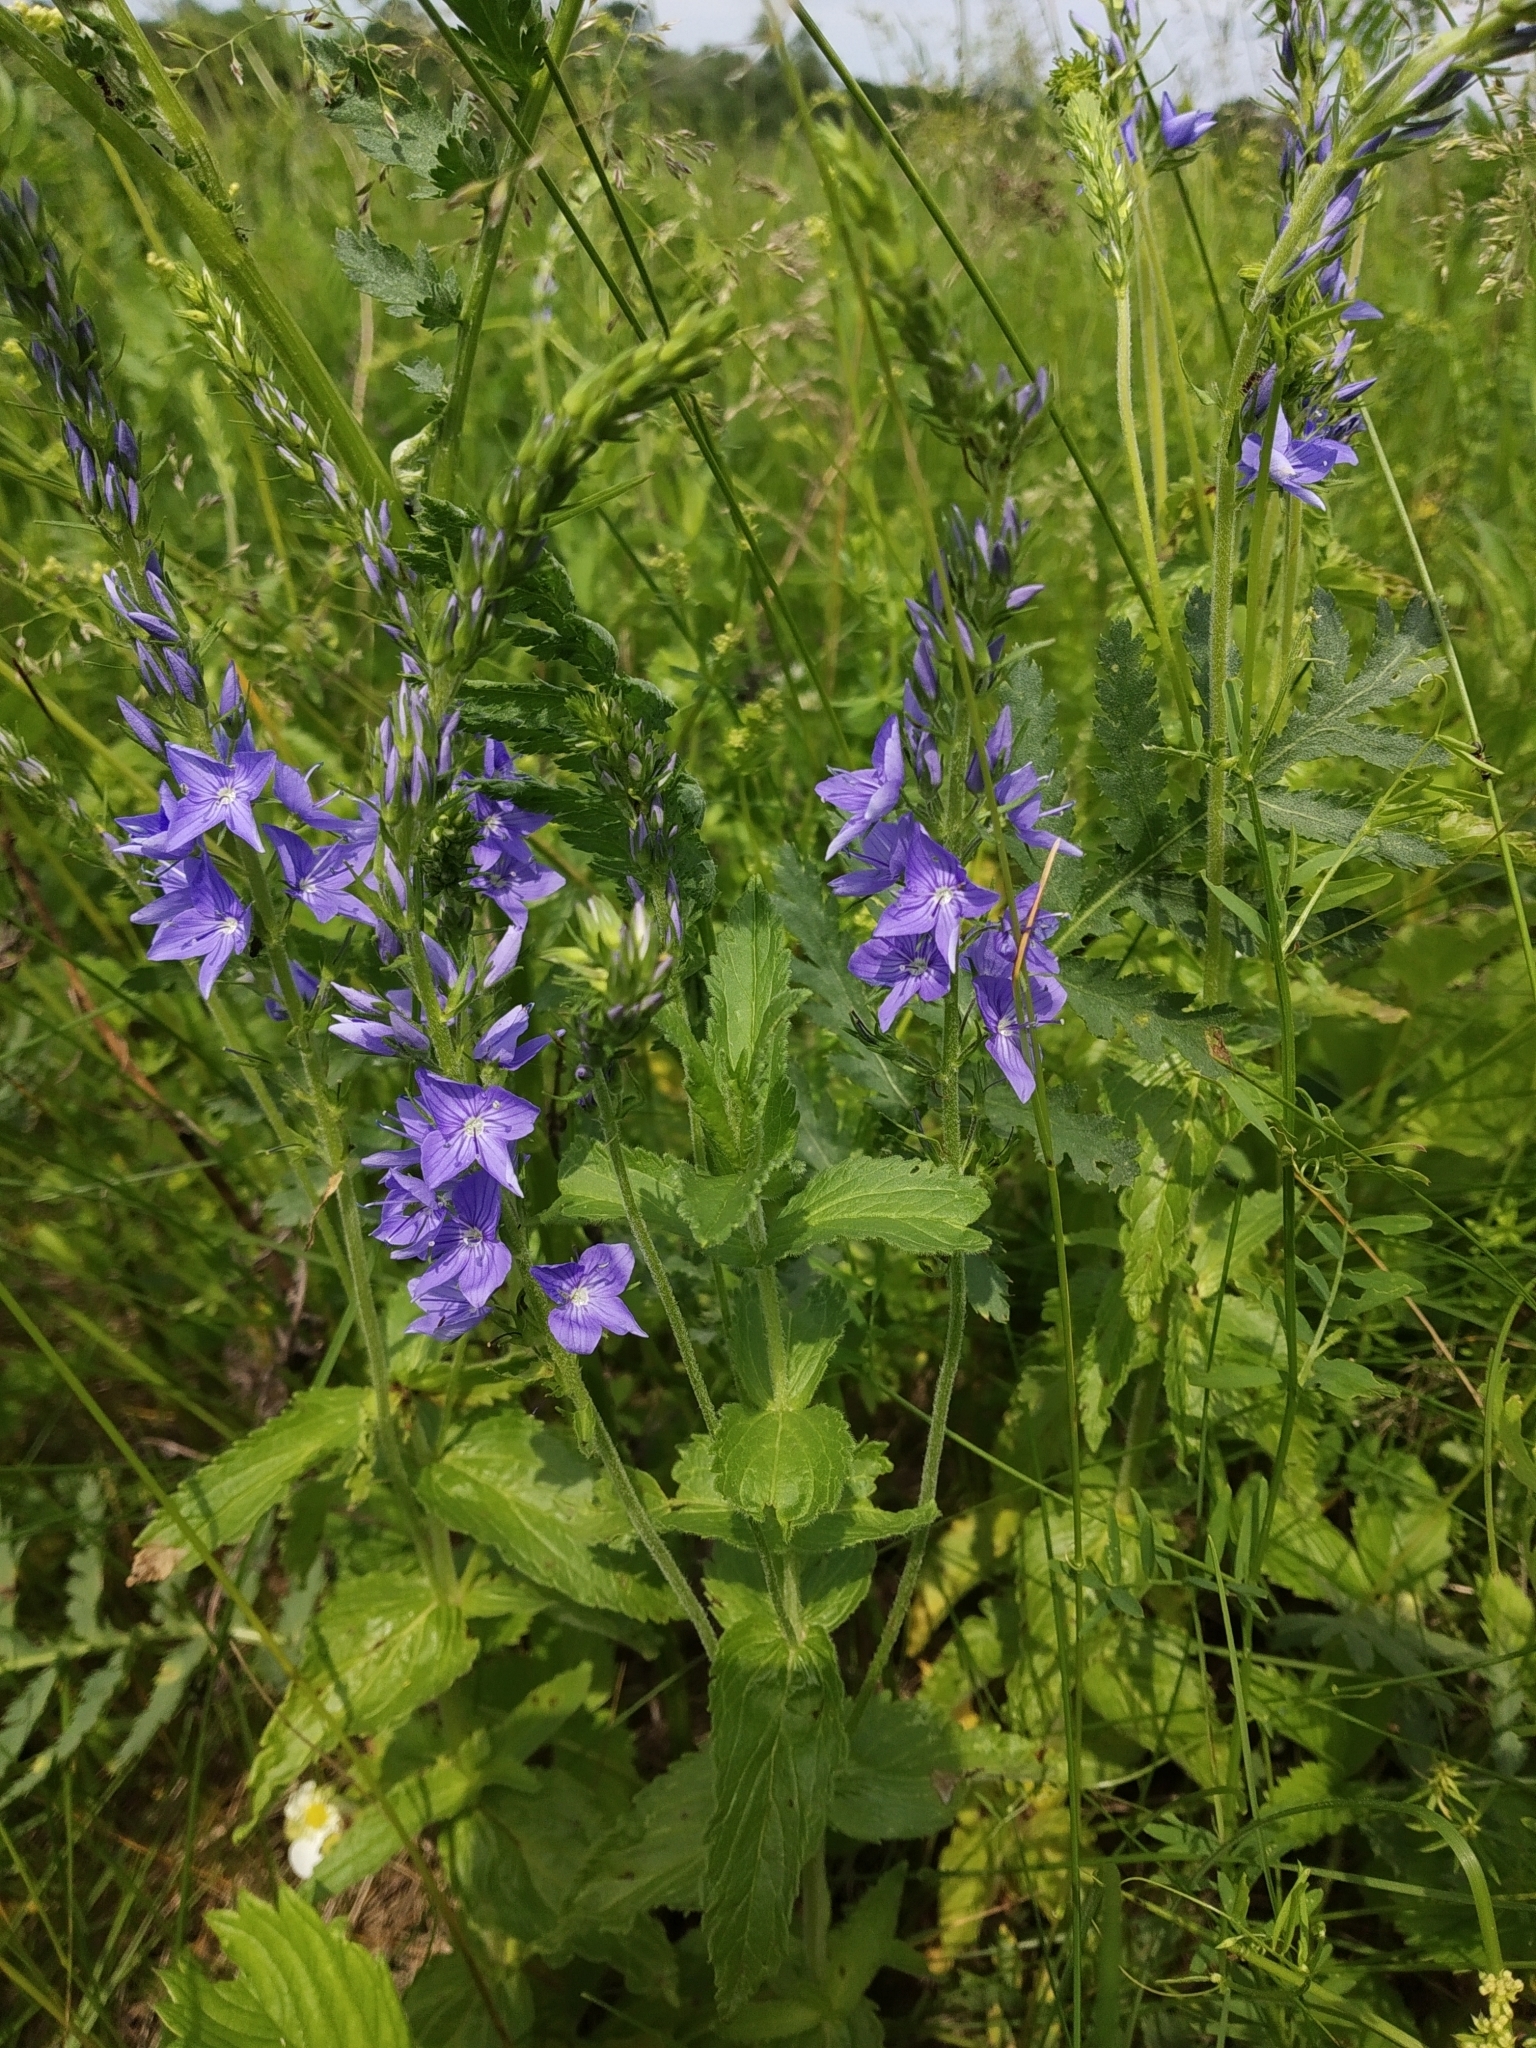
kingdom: Plantae
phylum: Tracheophyta
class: Magnoliopsida
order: Lamiales
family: Plantaginaceae
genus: Veronica
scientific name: Veronica teucrium
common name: Large speedwell
